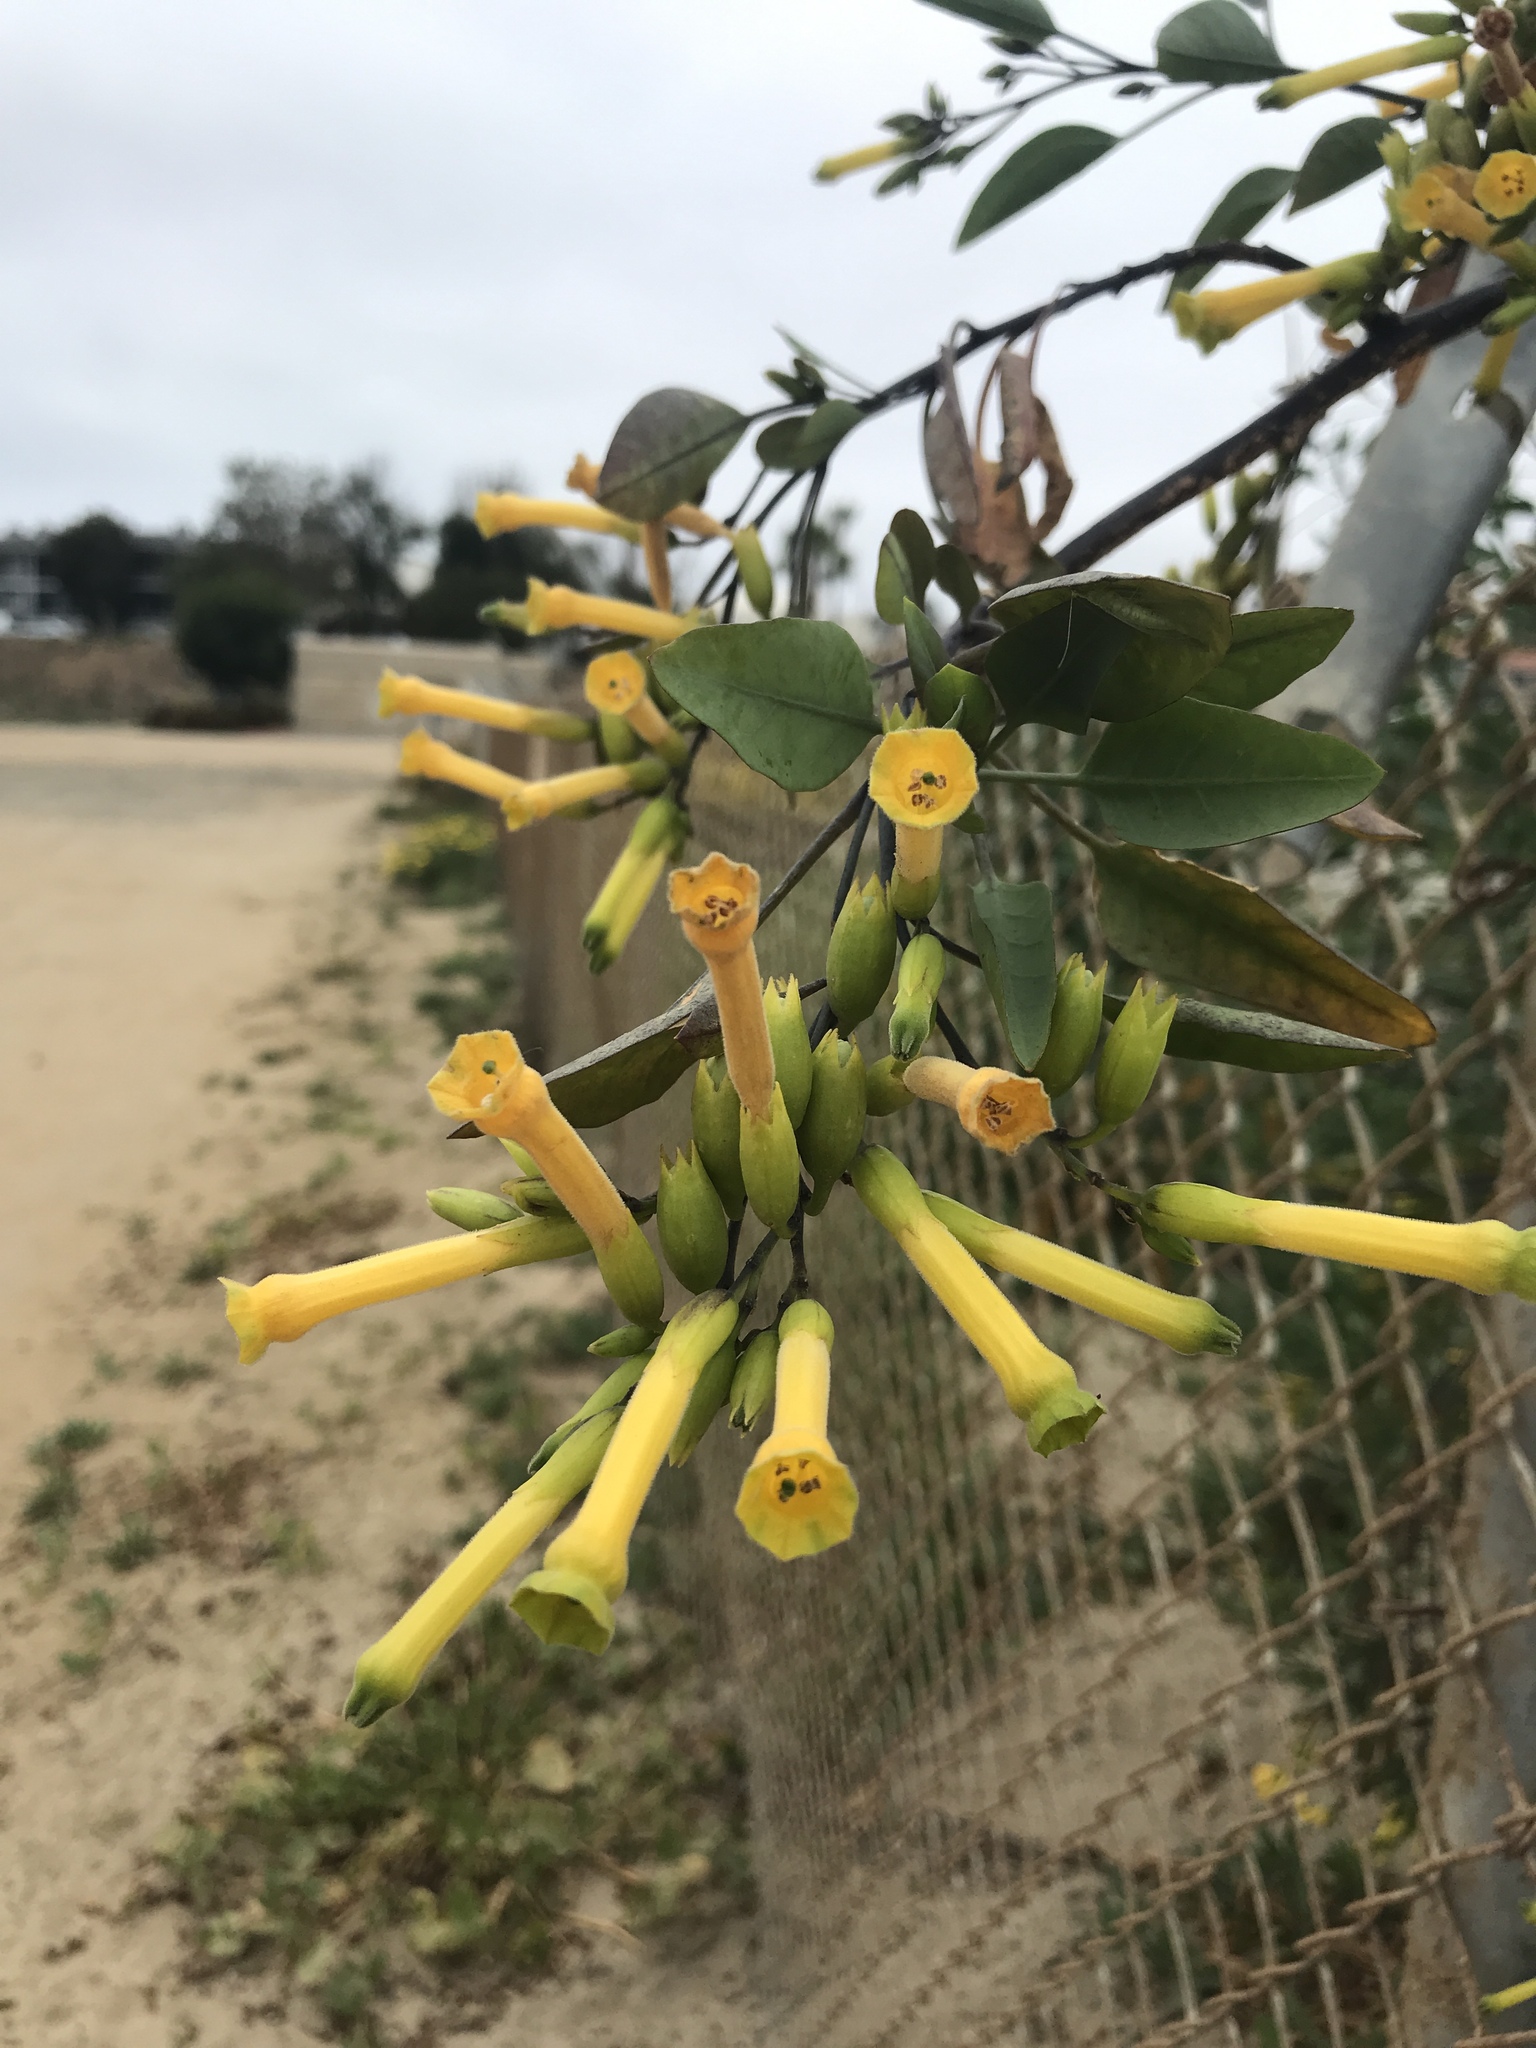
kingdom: Plantae
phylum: Tracheophyta
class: Magnoliopsida
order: Solanales
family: Solanaceae
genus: Nicotiana
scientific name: Nicotiana glauca
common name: Tree tobacco
